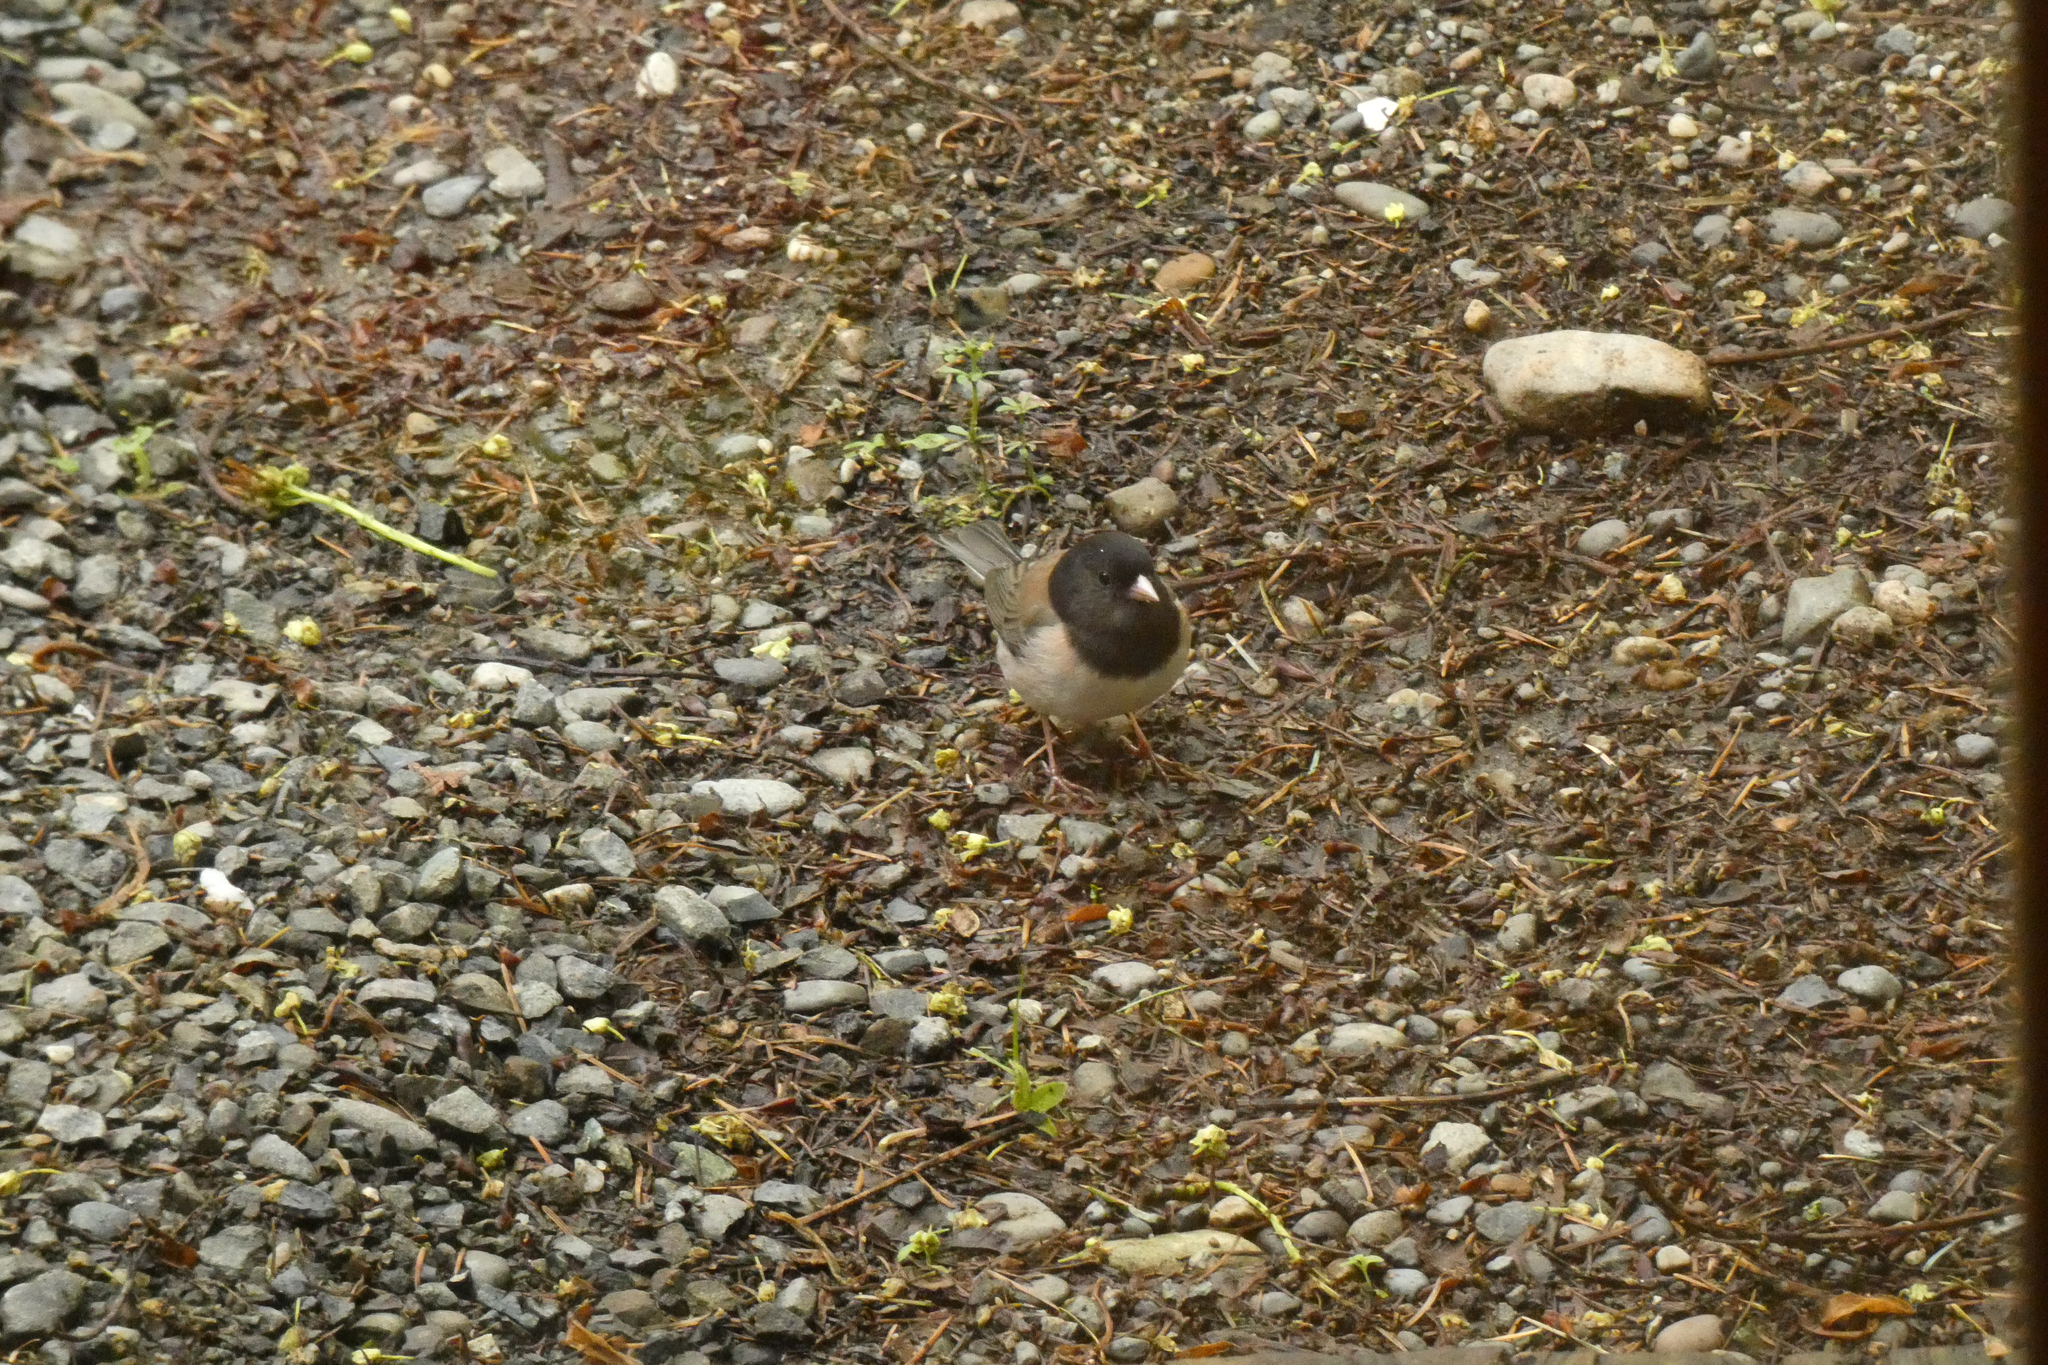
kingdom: Animalia
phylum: Chordata
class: Aves
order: Passeriformes
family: Passerellidae
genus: Junco
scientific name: Junco hyemalis
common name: Dark-eyed junco
